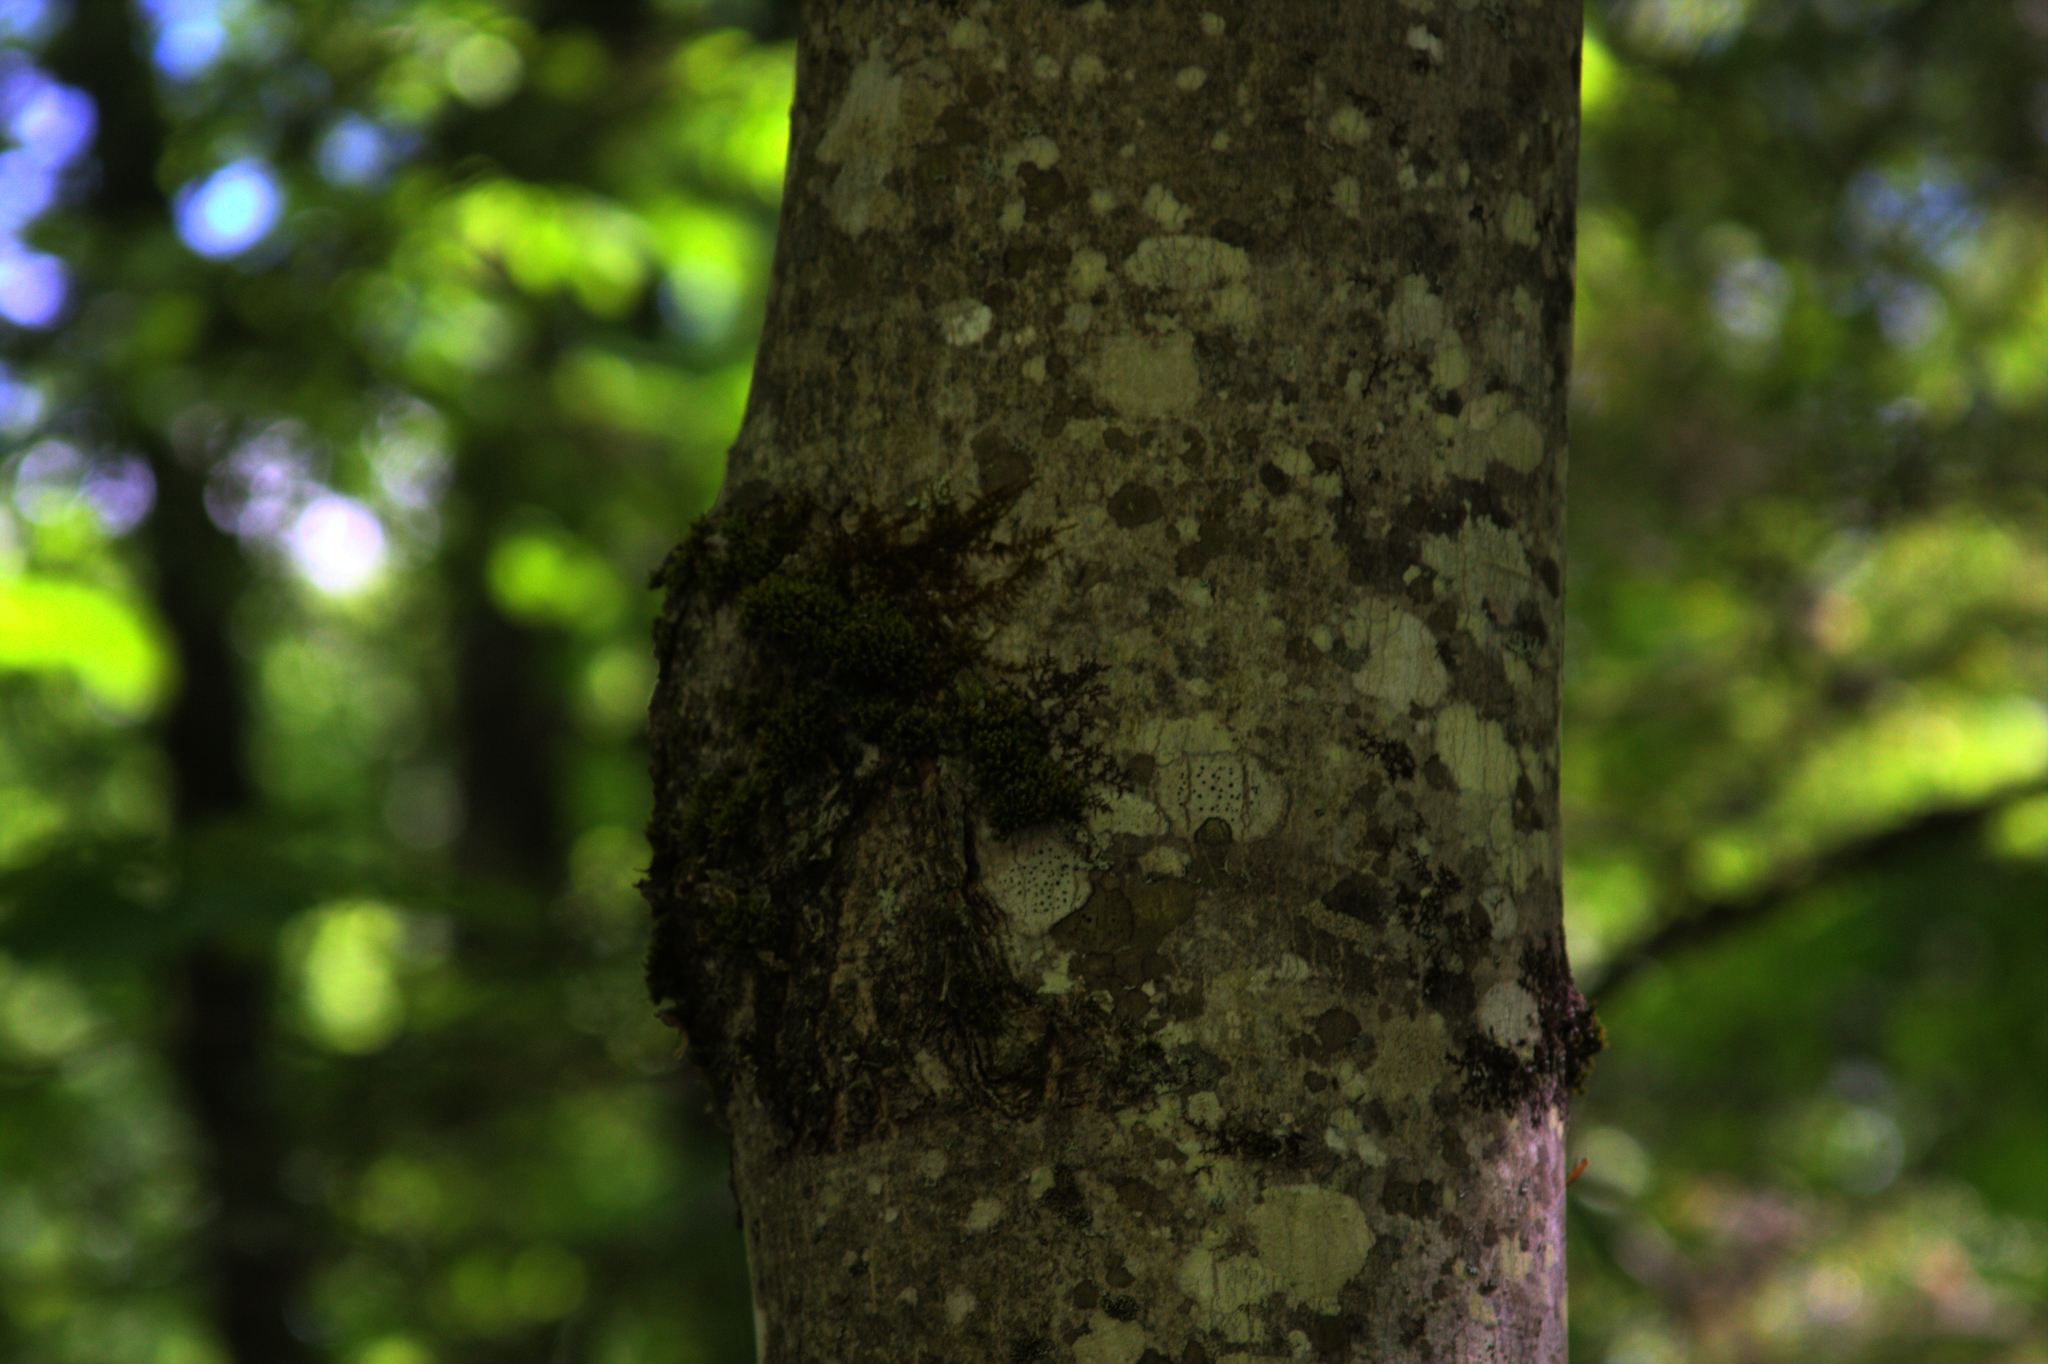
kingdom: Plantae
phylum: Bryophyta
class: Bryopsida
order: Orthotrichales
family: Orthotrichaceae
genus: Ulota
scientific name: Ulota crispa
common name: Crisped pincushion moss
